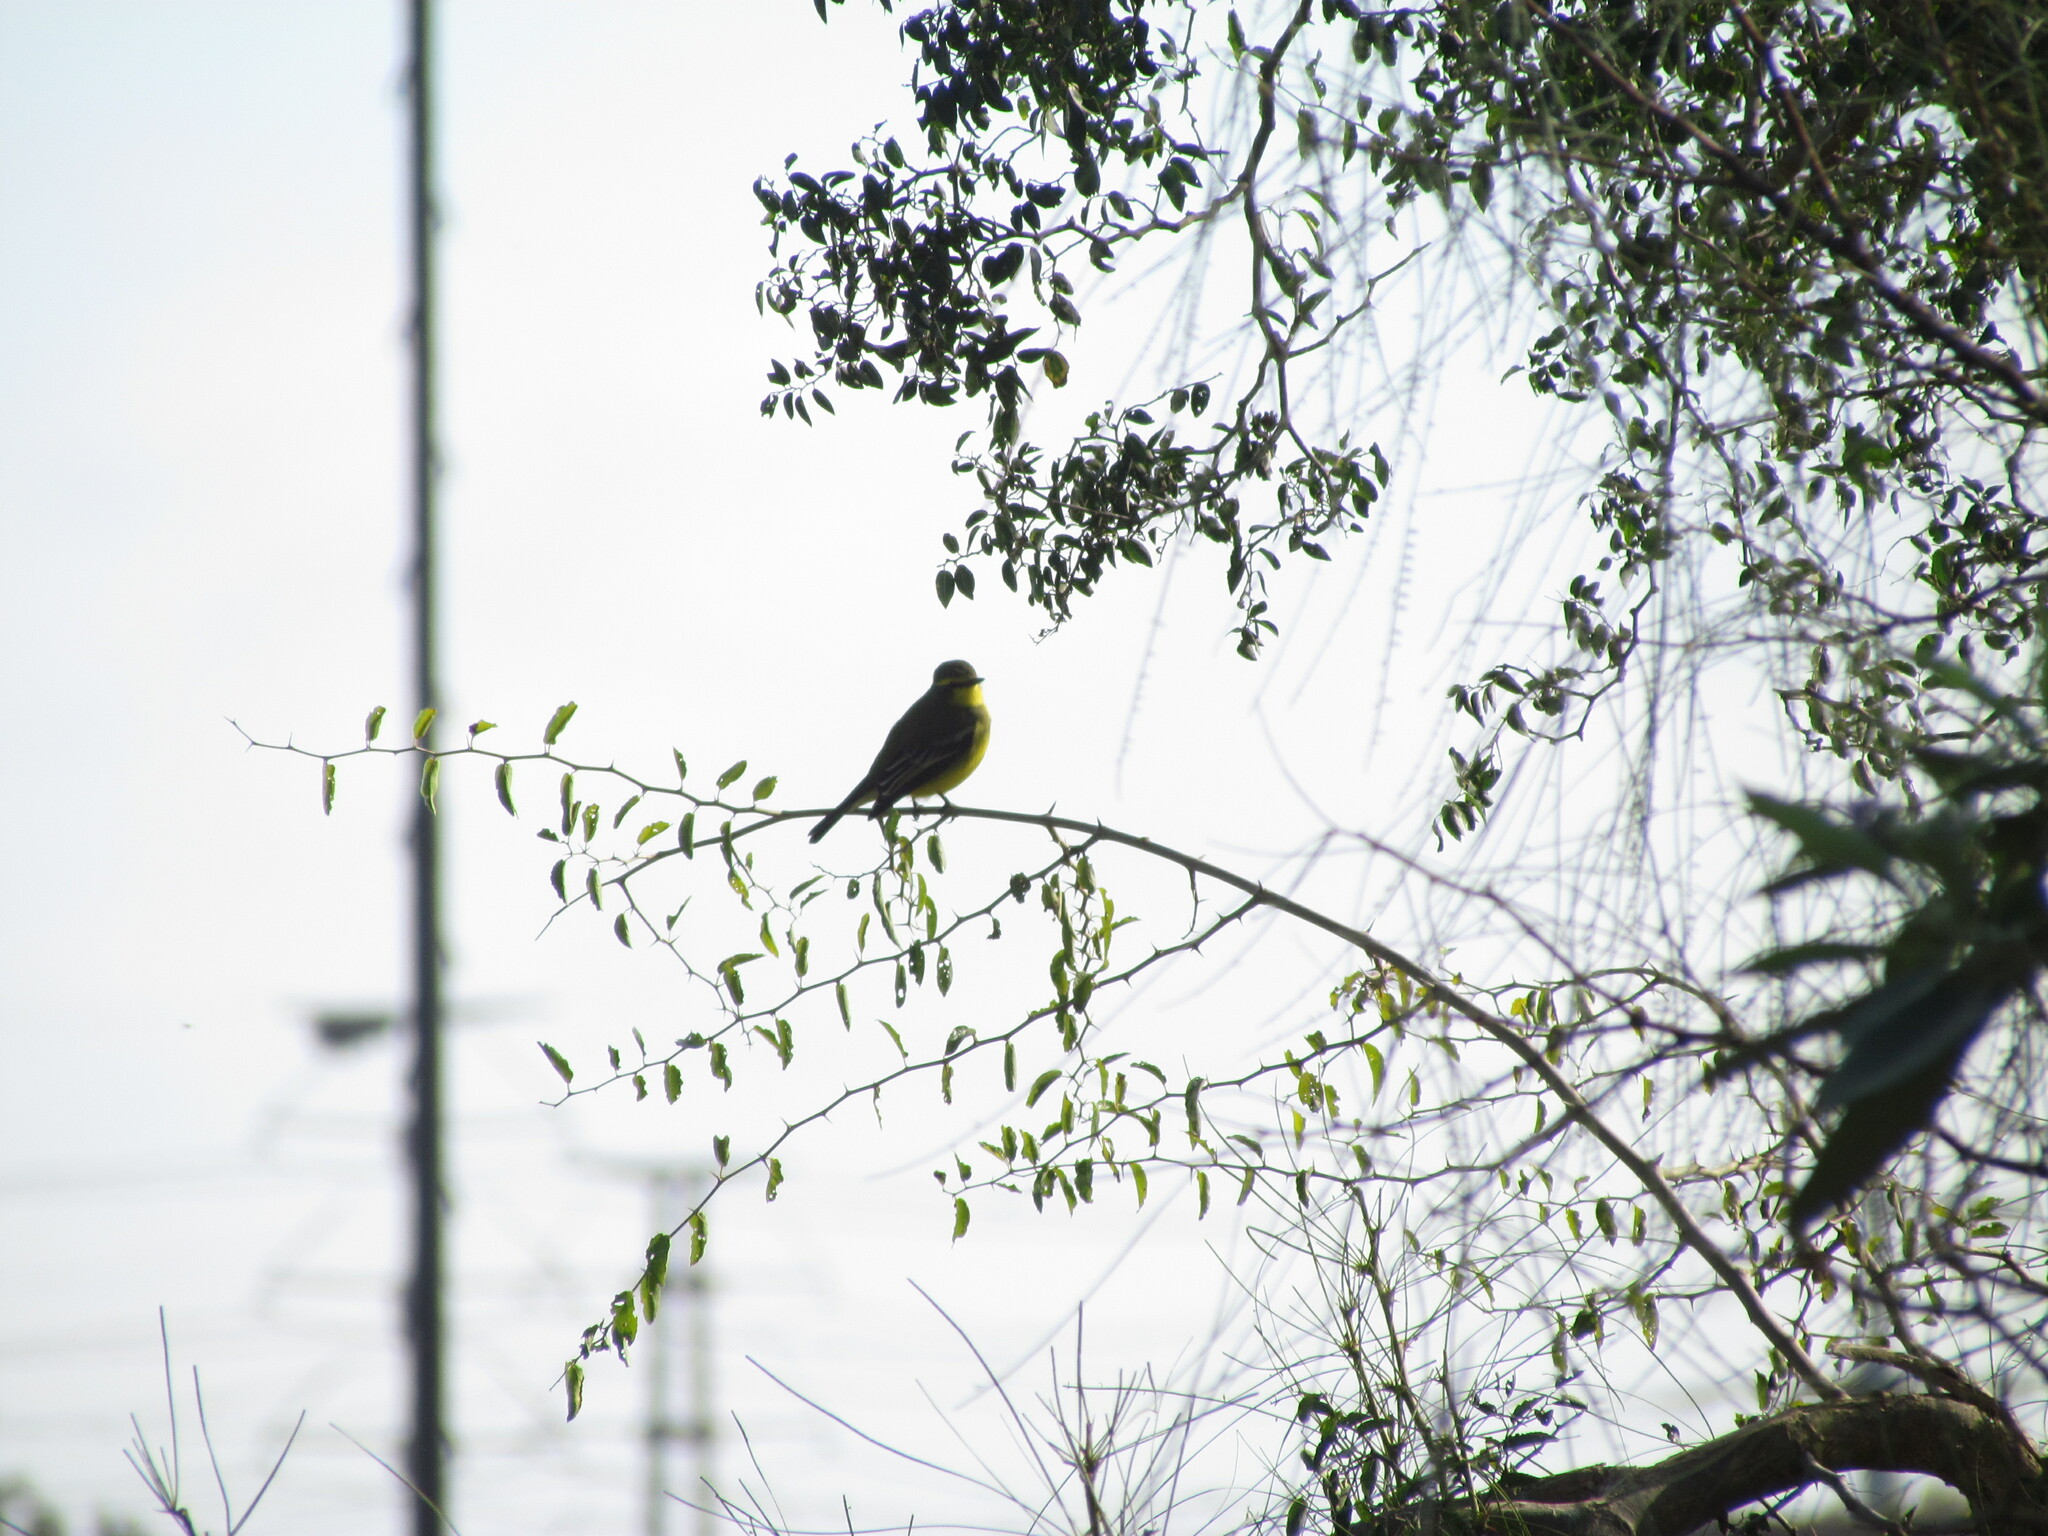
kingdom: Animalia
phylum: Chordata
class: Aves
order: Passeriformes
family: Tyrannidae
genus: Satrapa
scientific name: Satrapa icterophrys
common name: Yellow-browed tyrant
